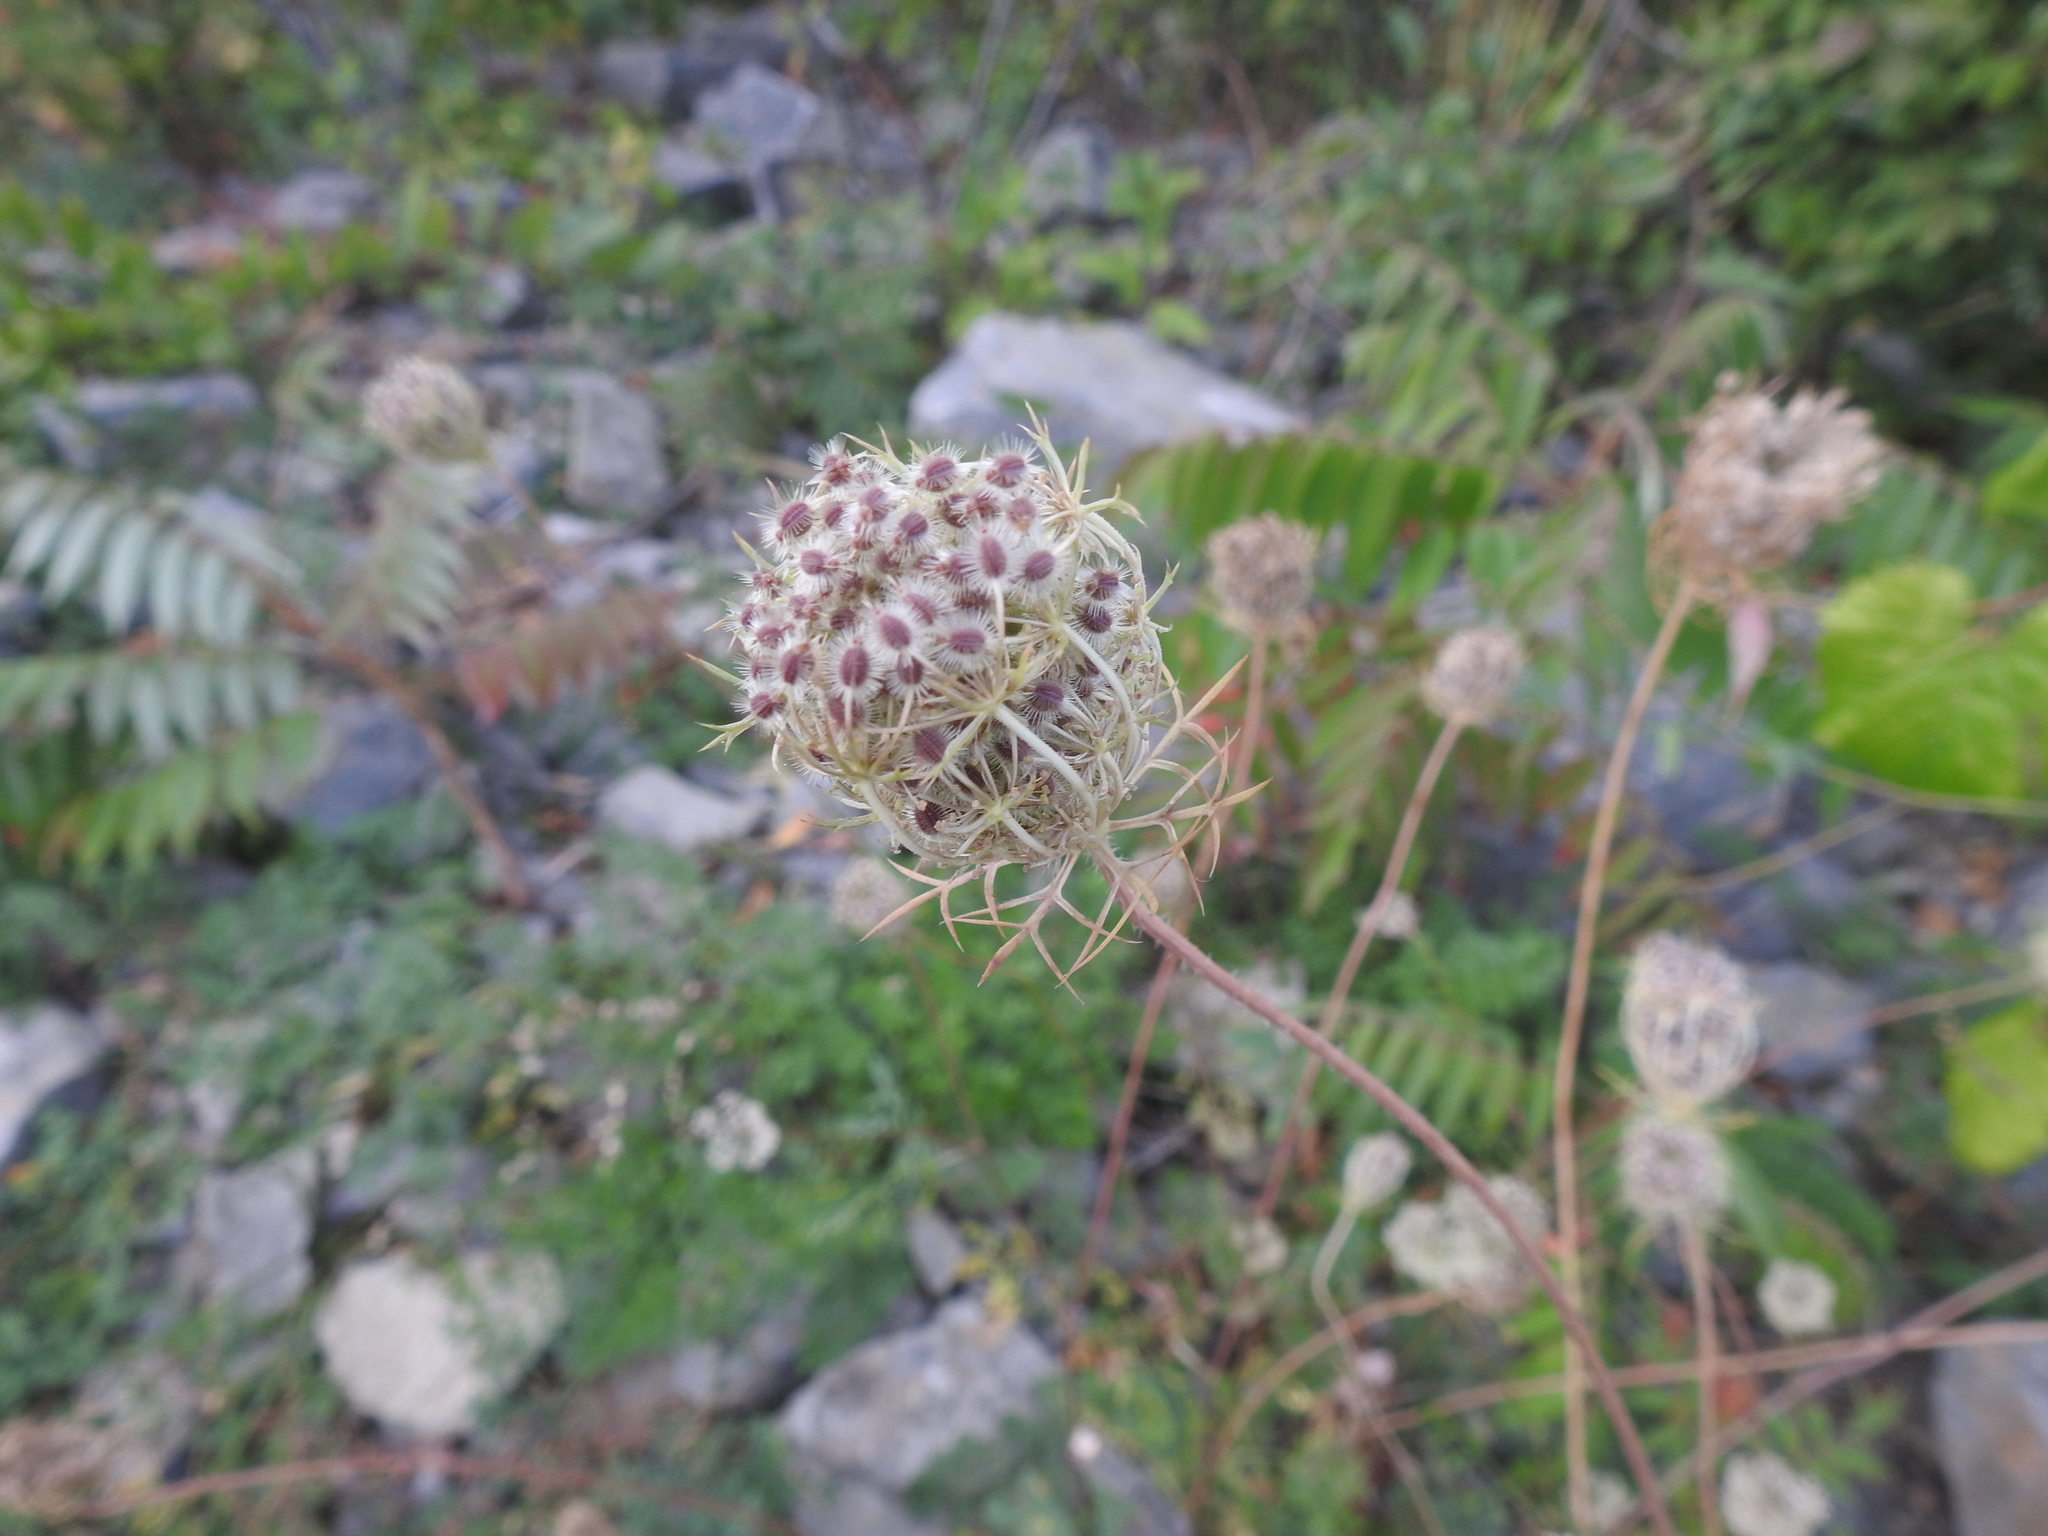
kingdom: Plantae
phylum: Tracheophyta
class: Magnoliopsida
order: Apiales
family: Apiaceae
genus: Daucus
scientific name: Daucus carota
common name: Wild carrot
